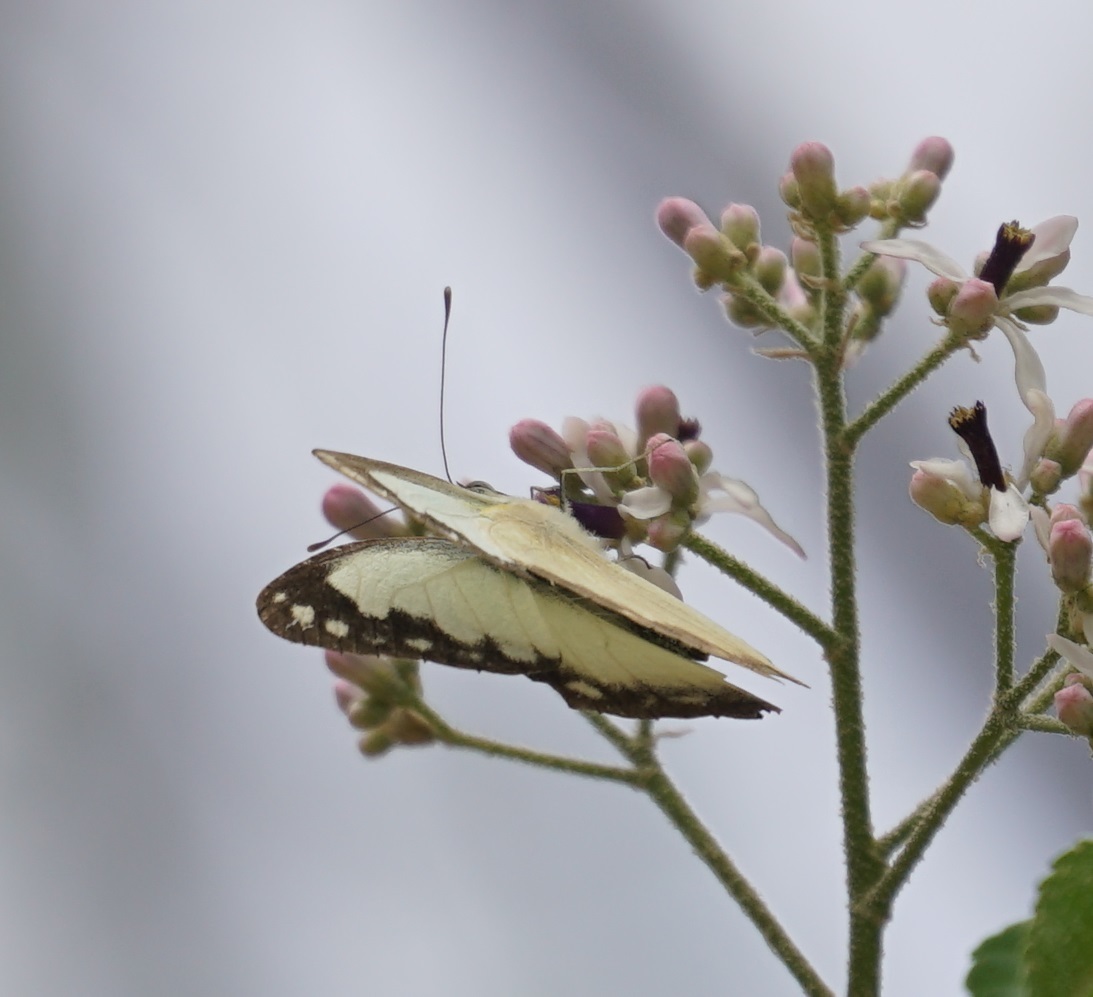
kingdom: Animalia
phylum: Arthropoda
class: Insecta
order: Lepidoptera
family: Pieridae
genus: Cepora
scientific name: Cepora perimale
